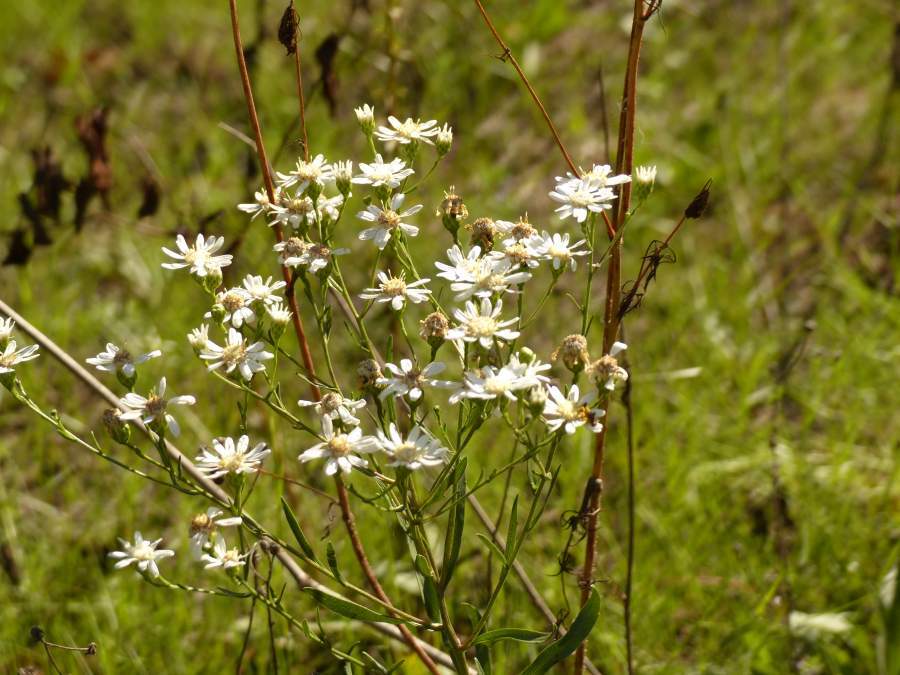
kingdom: Plantae
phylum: Tracheophyta
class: Magnoliopsida
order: Asterales
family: Asteraceae
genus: Solidago
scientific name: Solidago ptarmicoides
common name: White flat-top goldenrod
